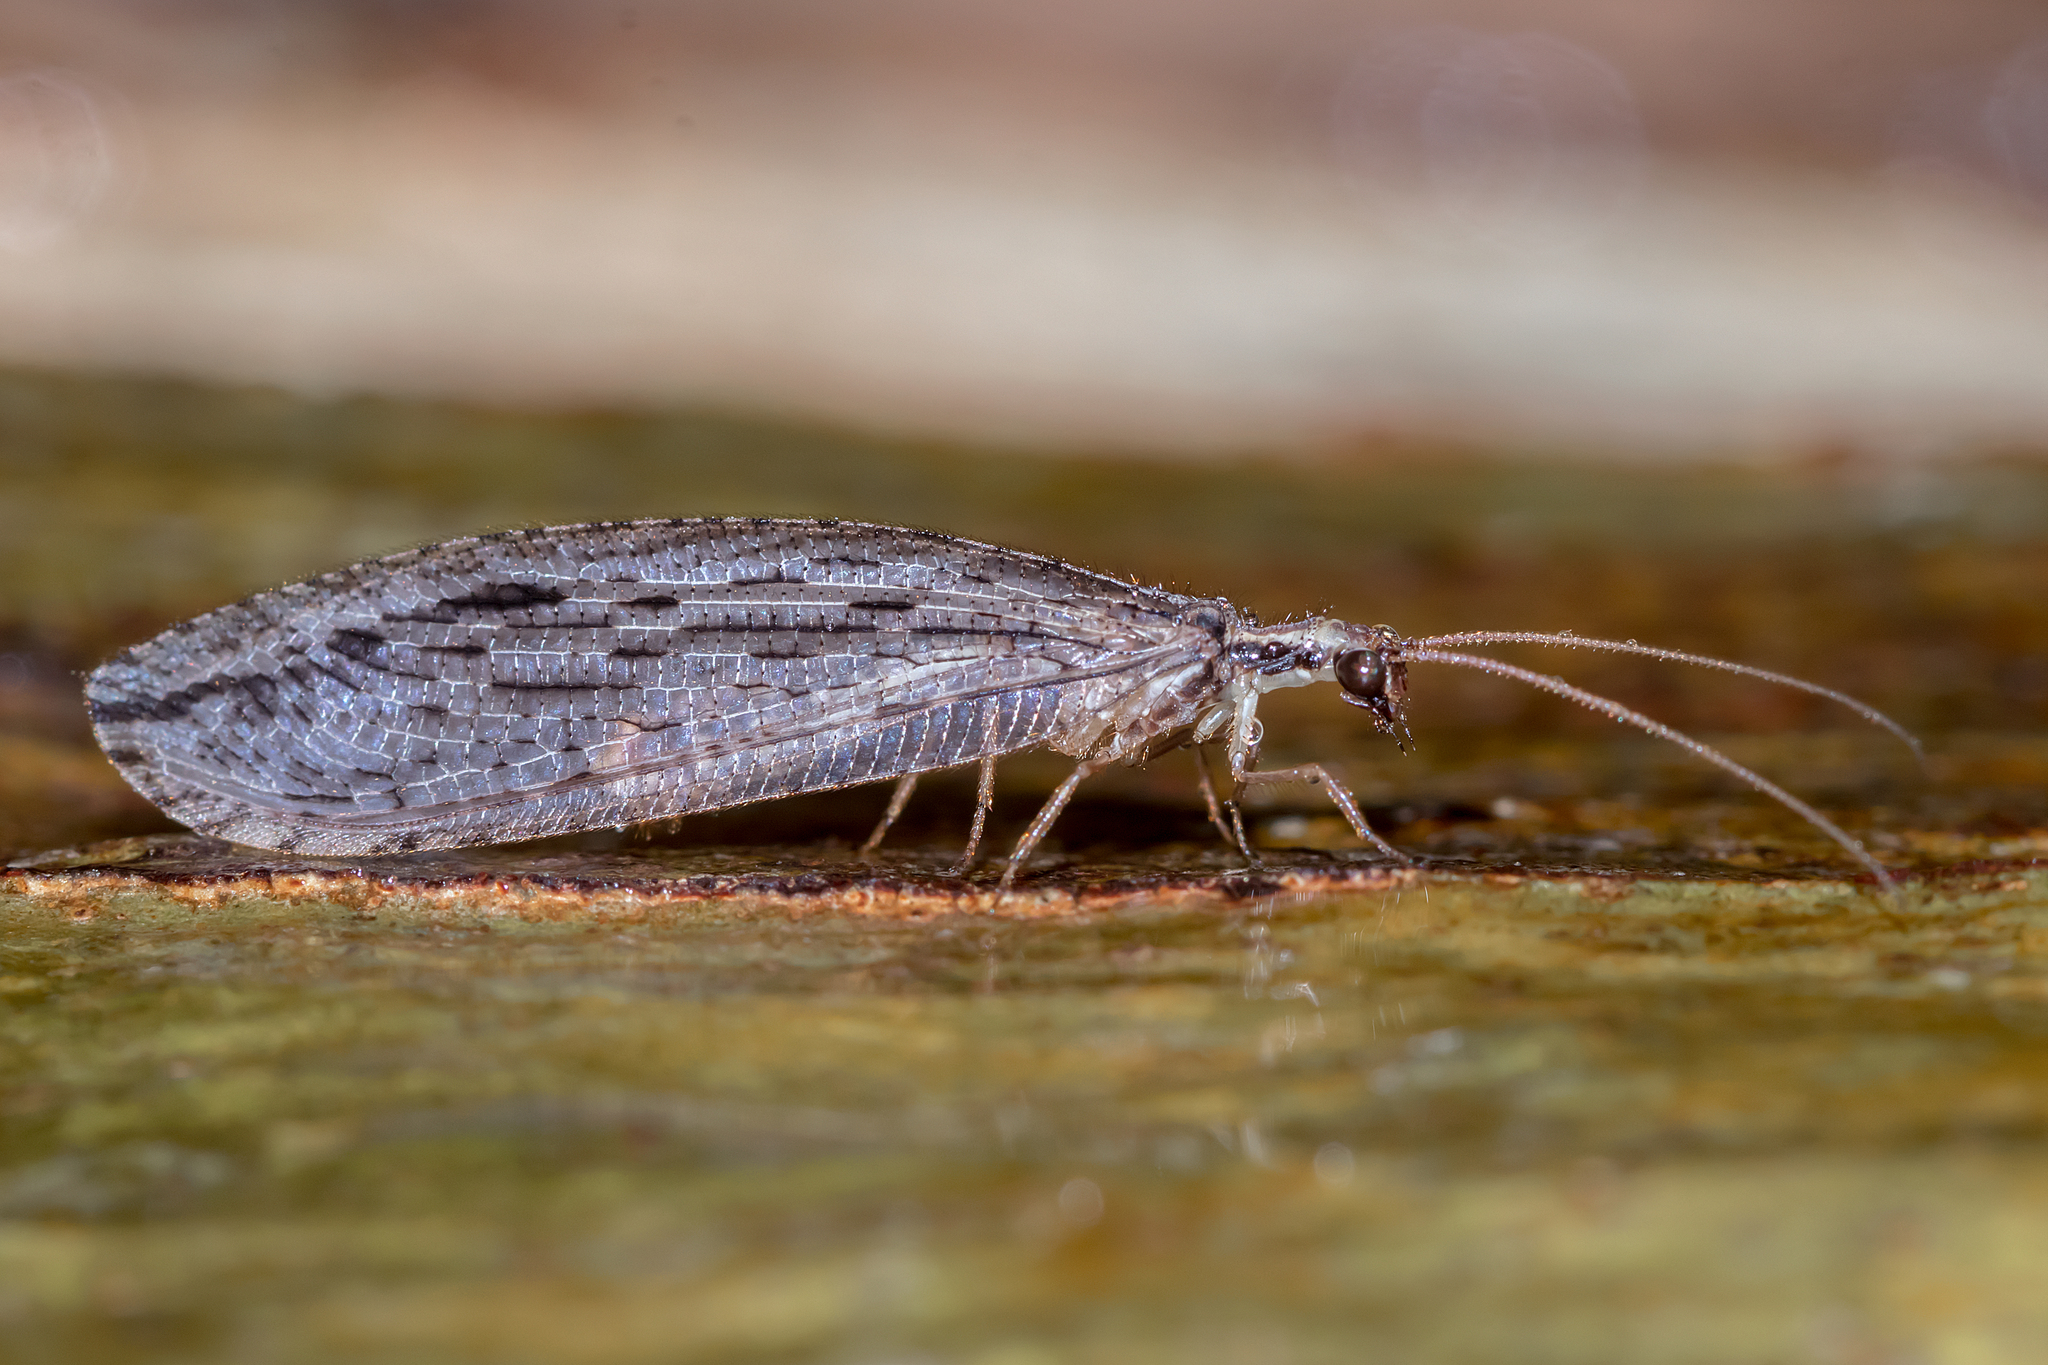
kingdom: Animalia
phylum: Arthropoda
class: Insecta
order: Neuroptera
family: Osmylidae
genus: Stenosmylus
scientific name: Stenosmylus stenopterus
